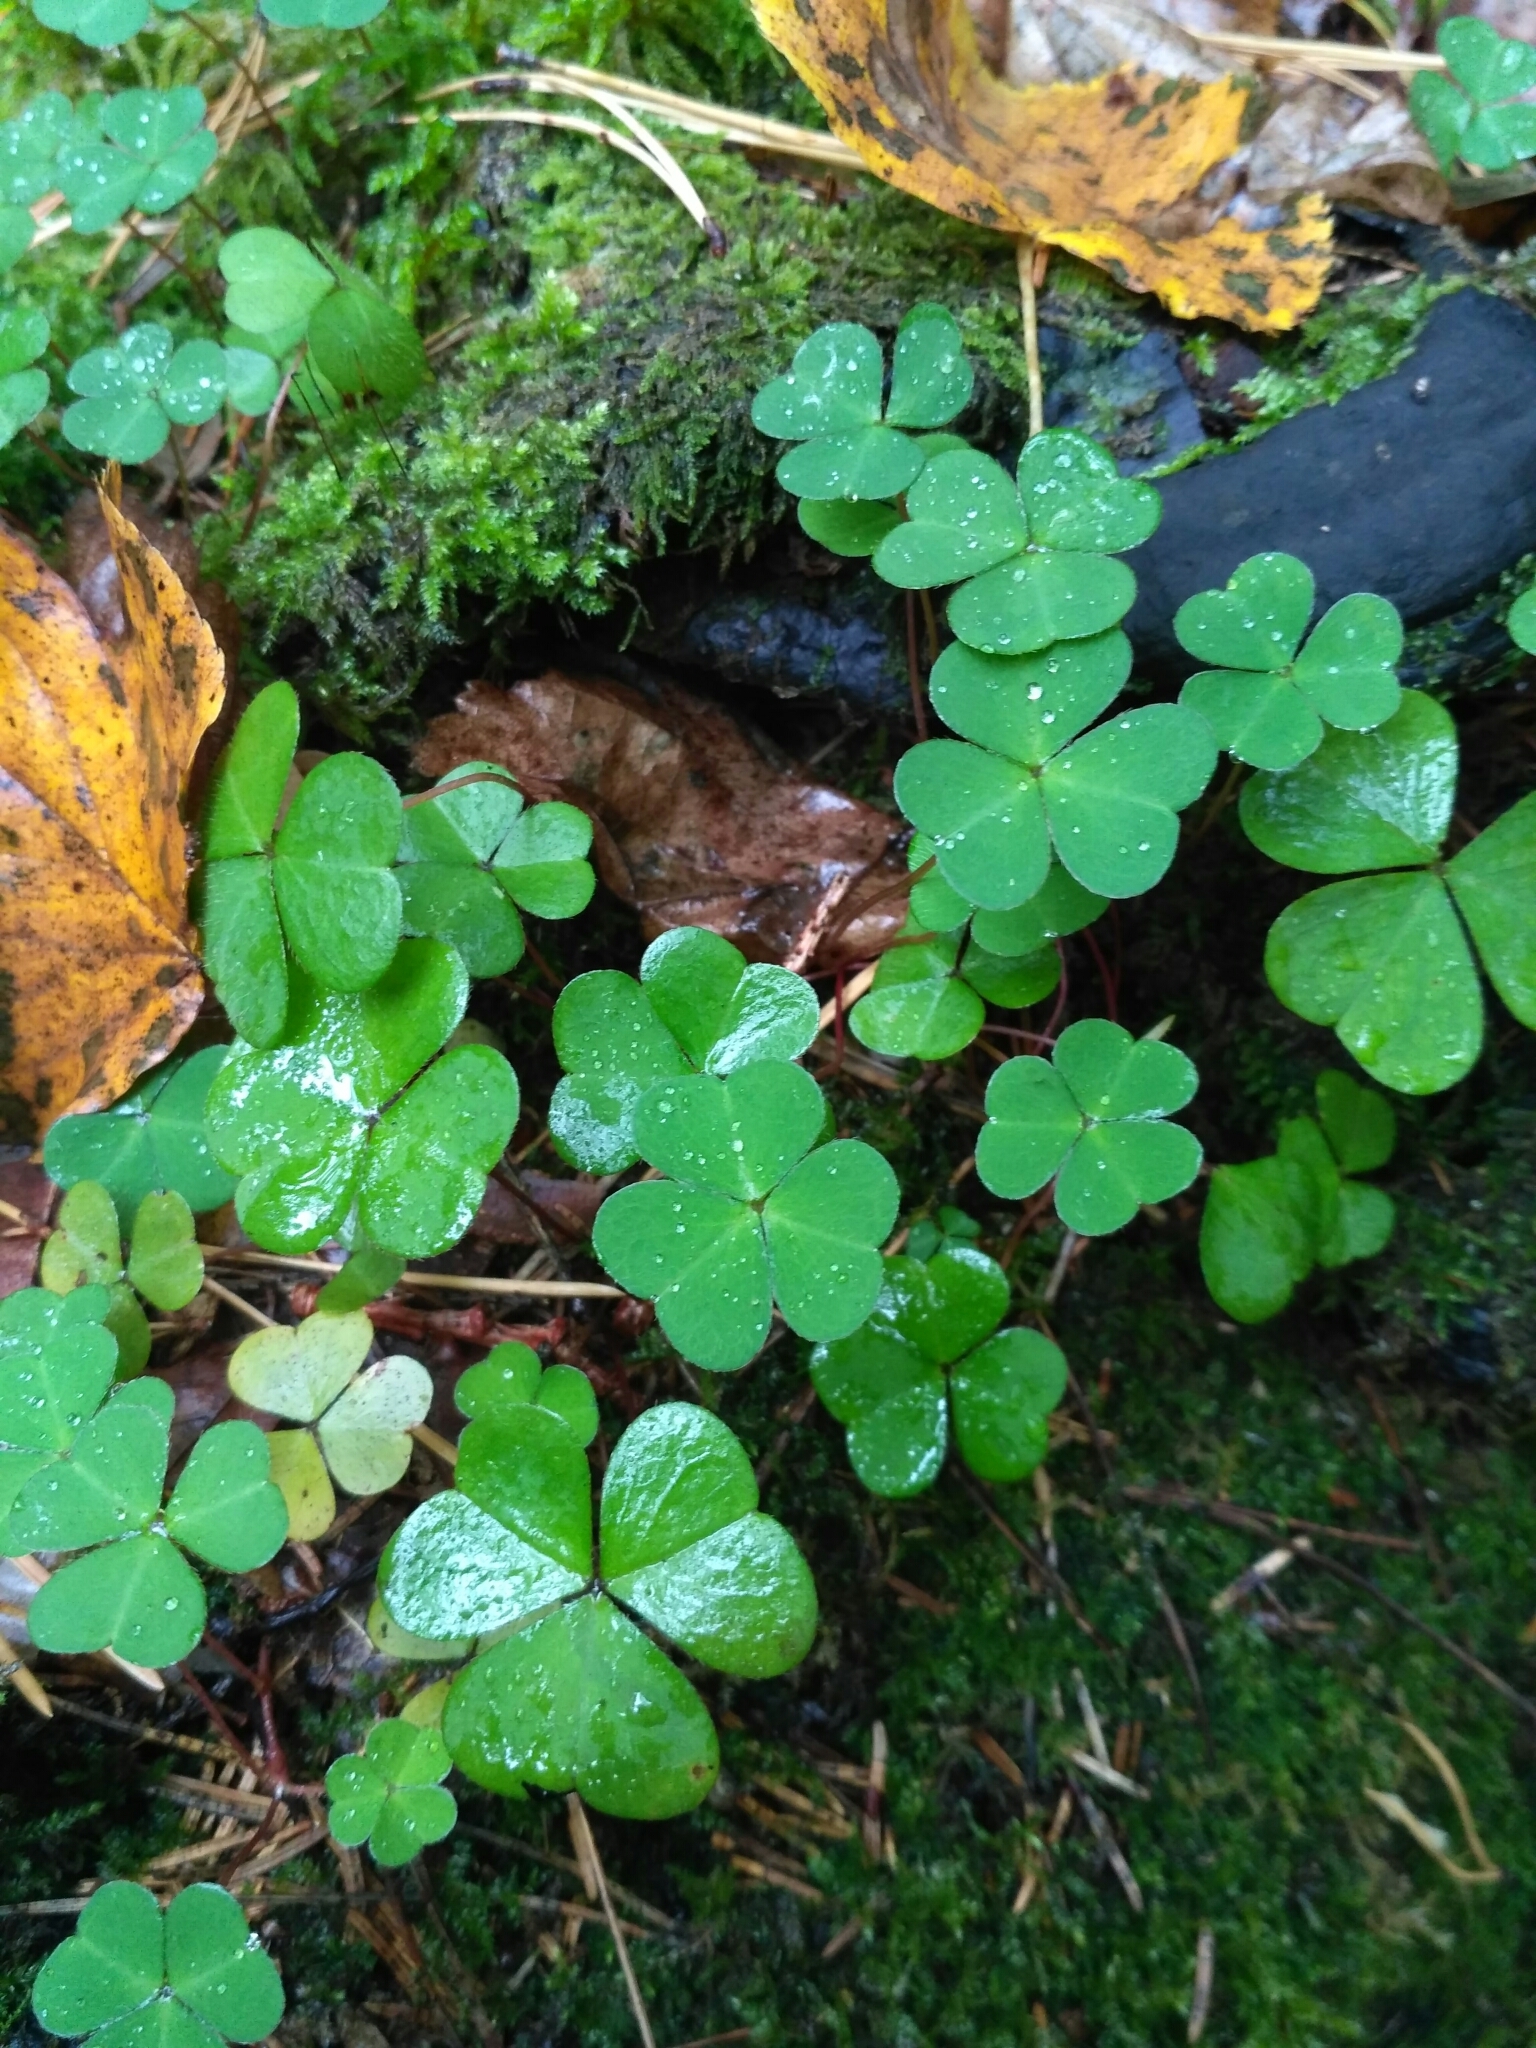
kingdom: Plantae
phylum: Tracheophyta
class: Magnoliopsida
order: Oxalidales
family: Oxalidaceae
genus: Oxalis
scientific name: Oxalis acetosella
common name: Wood-sorrel
